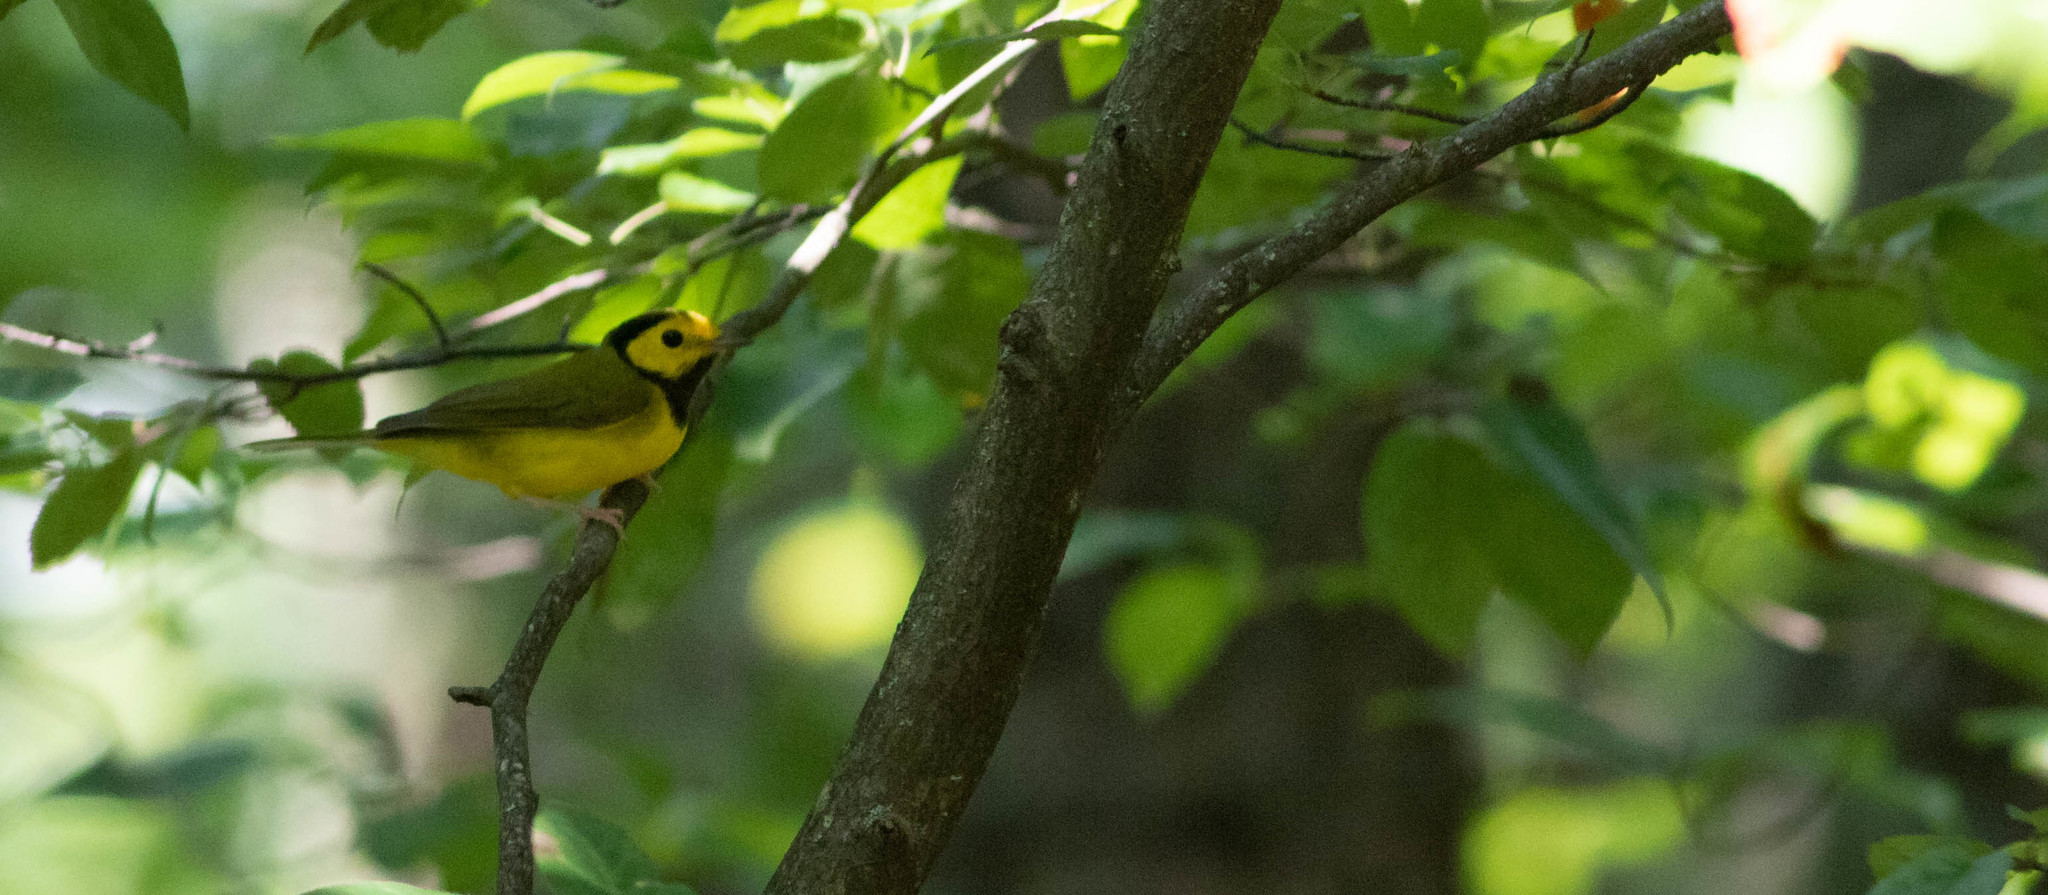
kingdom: Animalia
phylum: Chordata
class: Aves
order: Passeriformes
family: Parulidae
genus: Setophaga
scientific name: Setophaga citrina
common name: Hooded warbler
